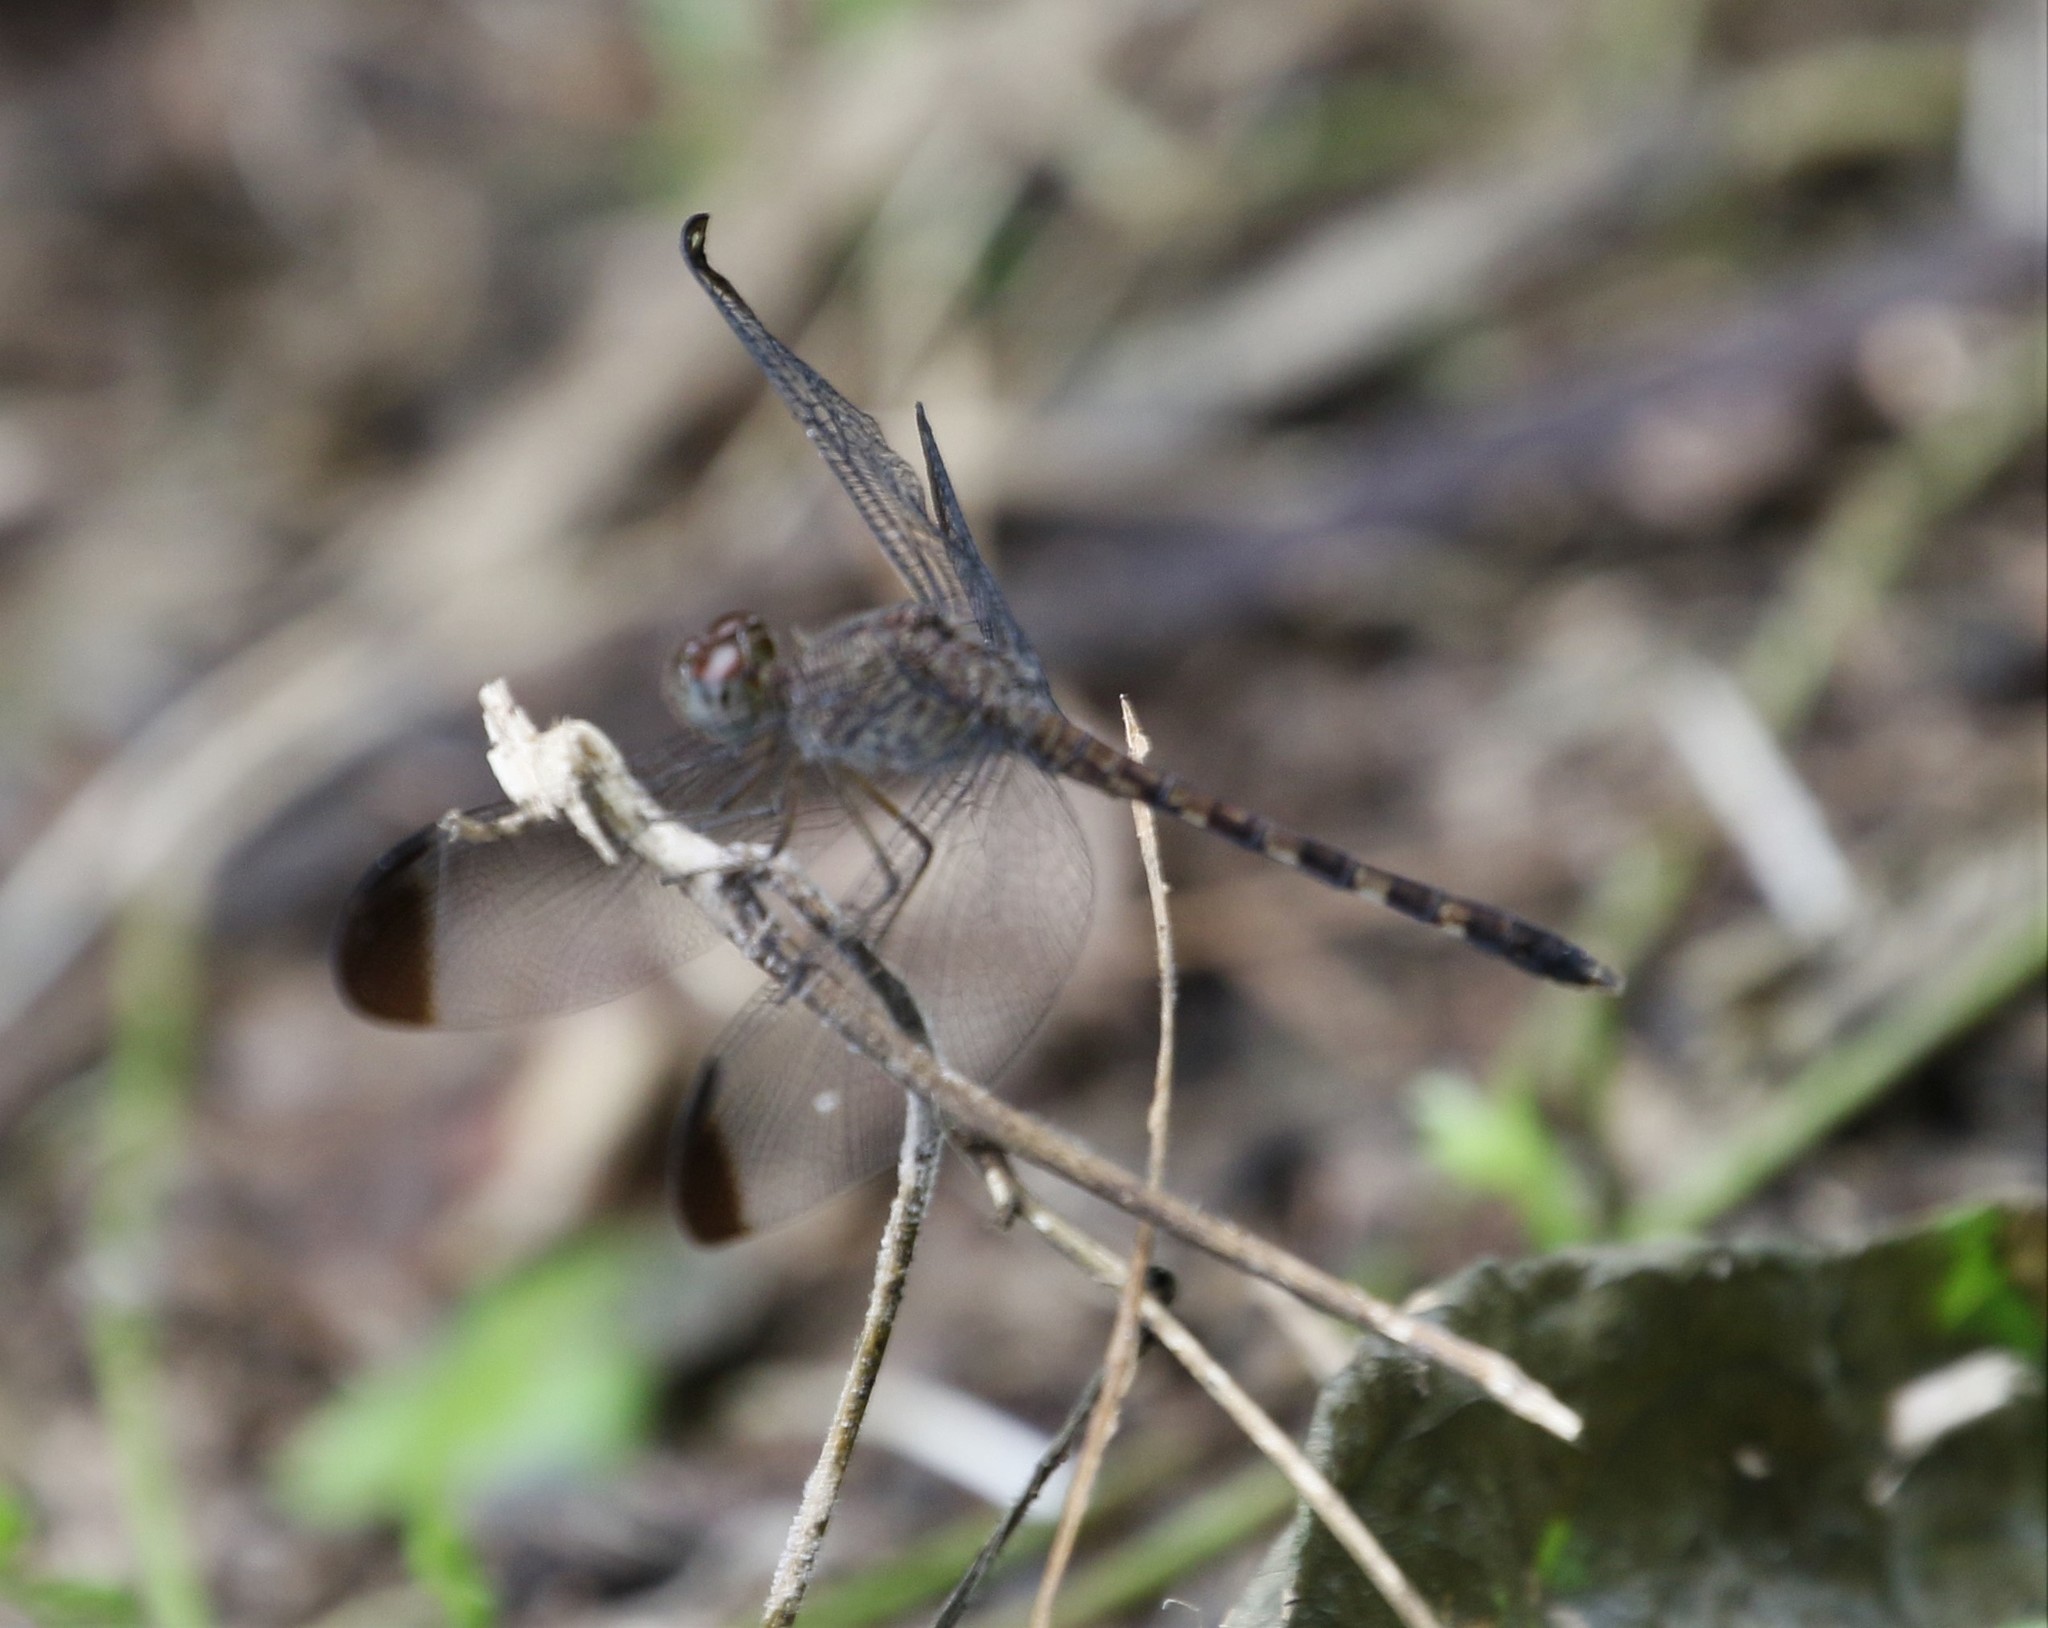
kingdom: Animalia
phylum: Arthropoda
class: Insecta
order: Odonata
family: Libellulidae
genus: Uracis
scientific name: Uracis imbuta
